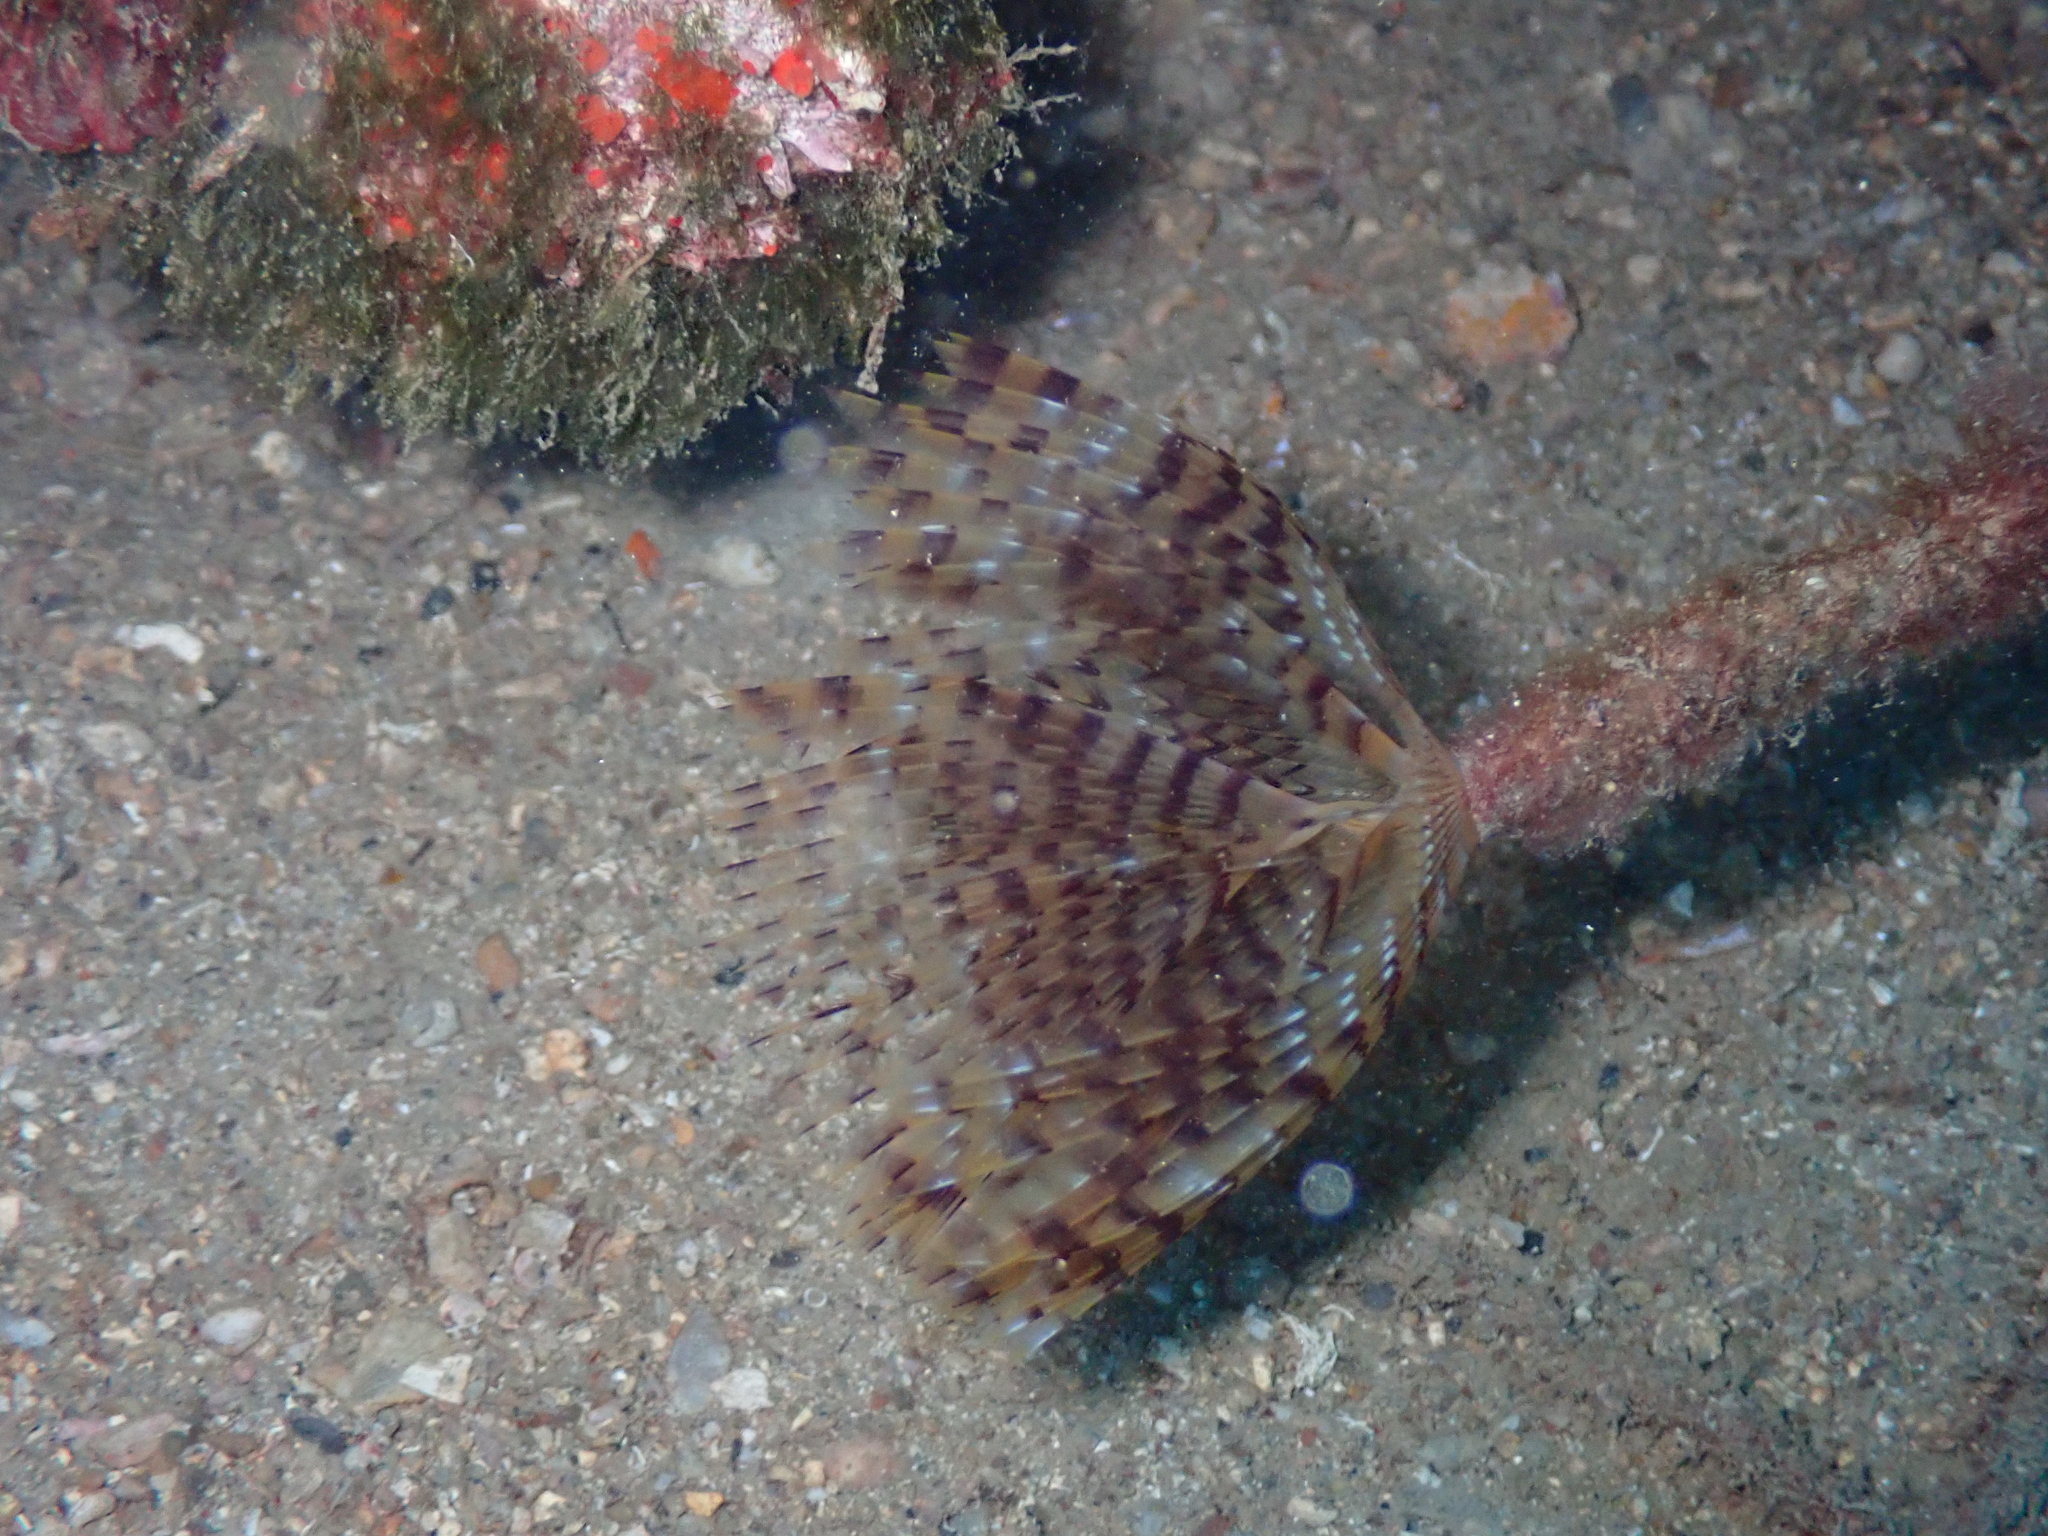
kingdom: Animalia
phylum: Annelida
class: Polychaeta
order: Sabellida
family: Sabellidae
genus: Sabella
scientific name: Sabella spallanzanii
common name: Feather duster worm
